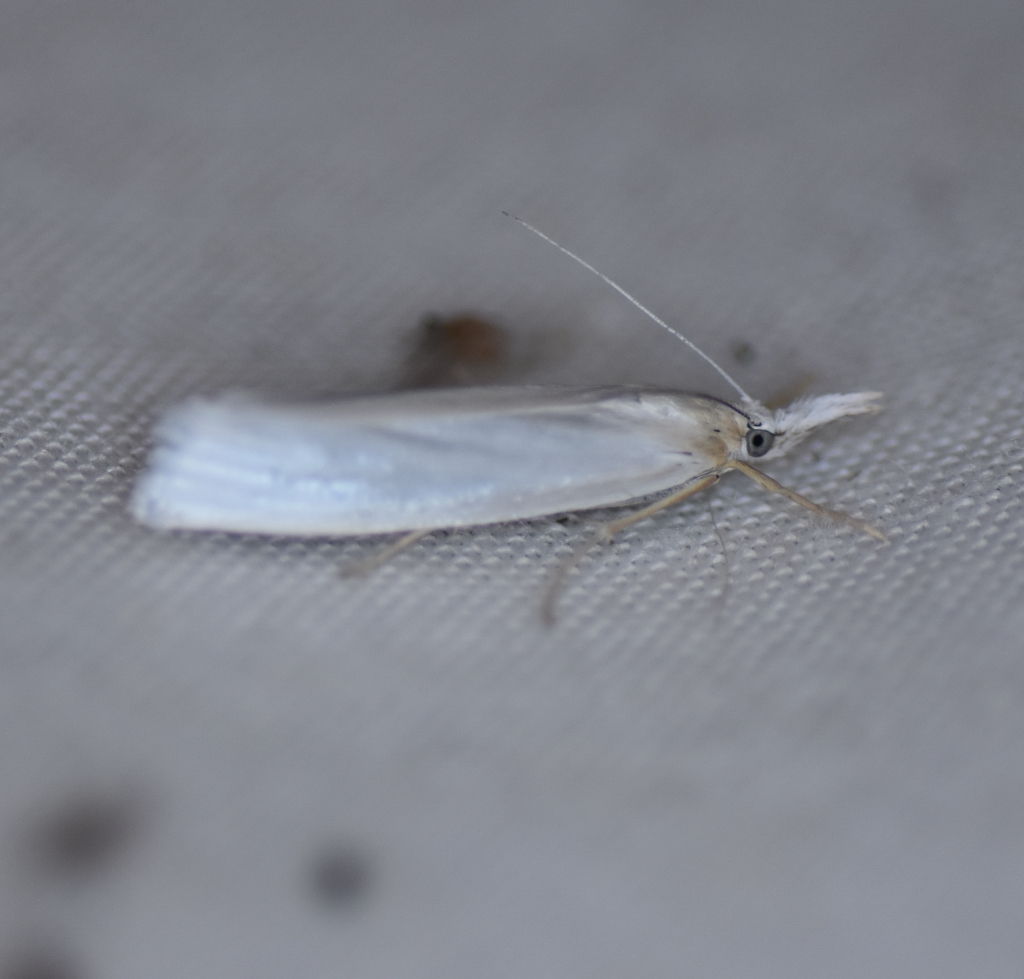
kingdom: Animalia
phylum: Arthropoda
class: Insecta
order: Lepidoptera
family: Crambidae
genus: Crambus
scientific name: Crambus perlellus
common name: Yellow satin veneer
